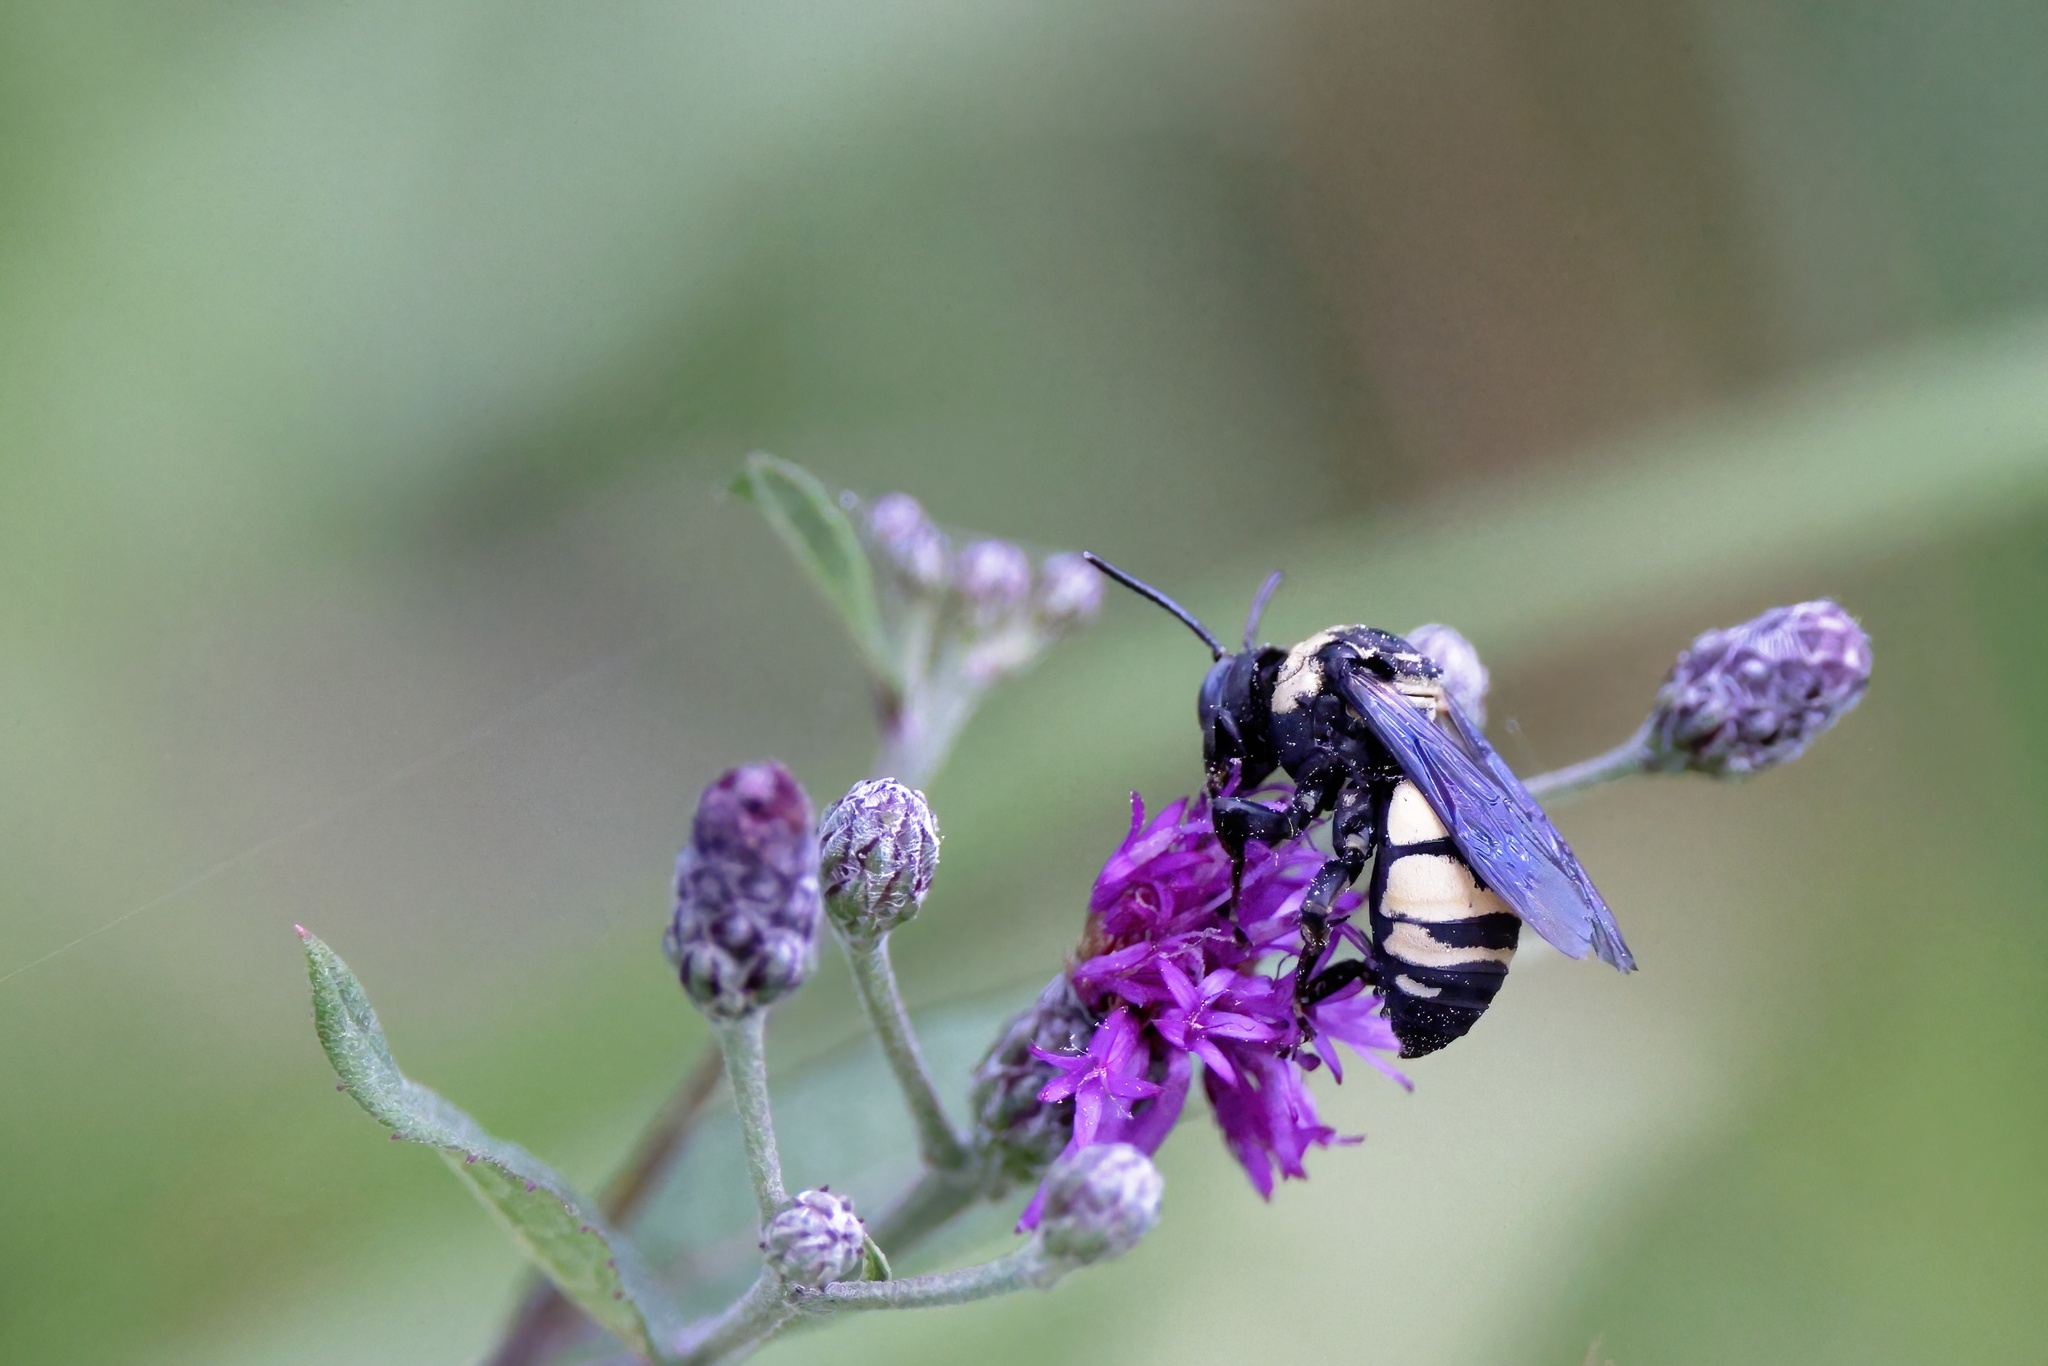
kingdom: Animalia
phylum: Arthropoda
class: Insecta
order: Hymenoptera
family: Apidae
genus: Triepeolus
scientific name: Triepeolus concavus
